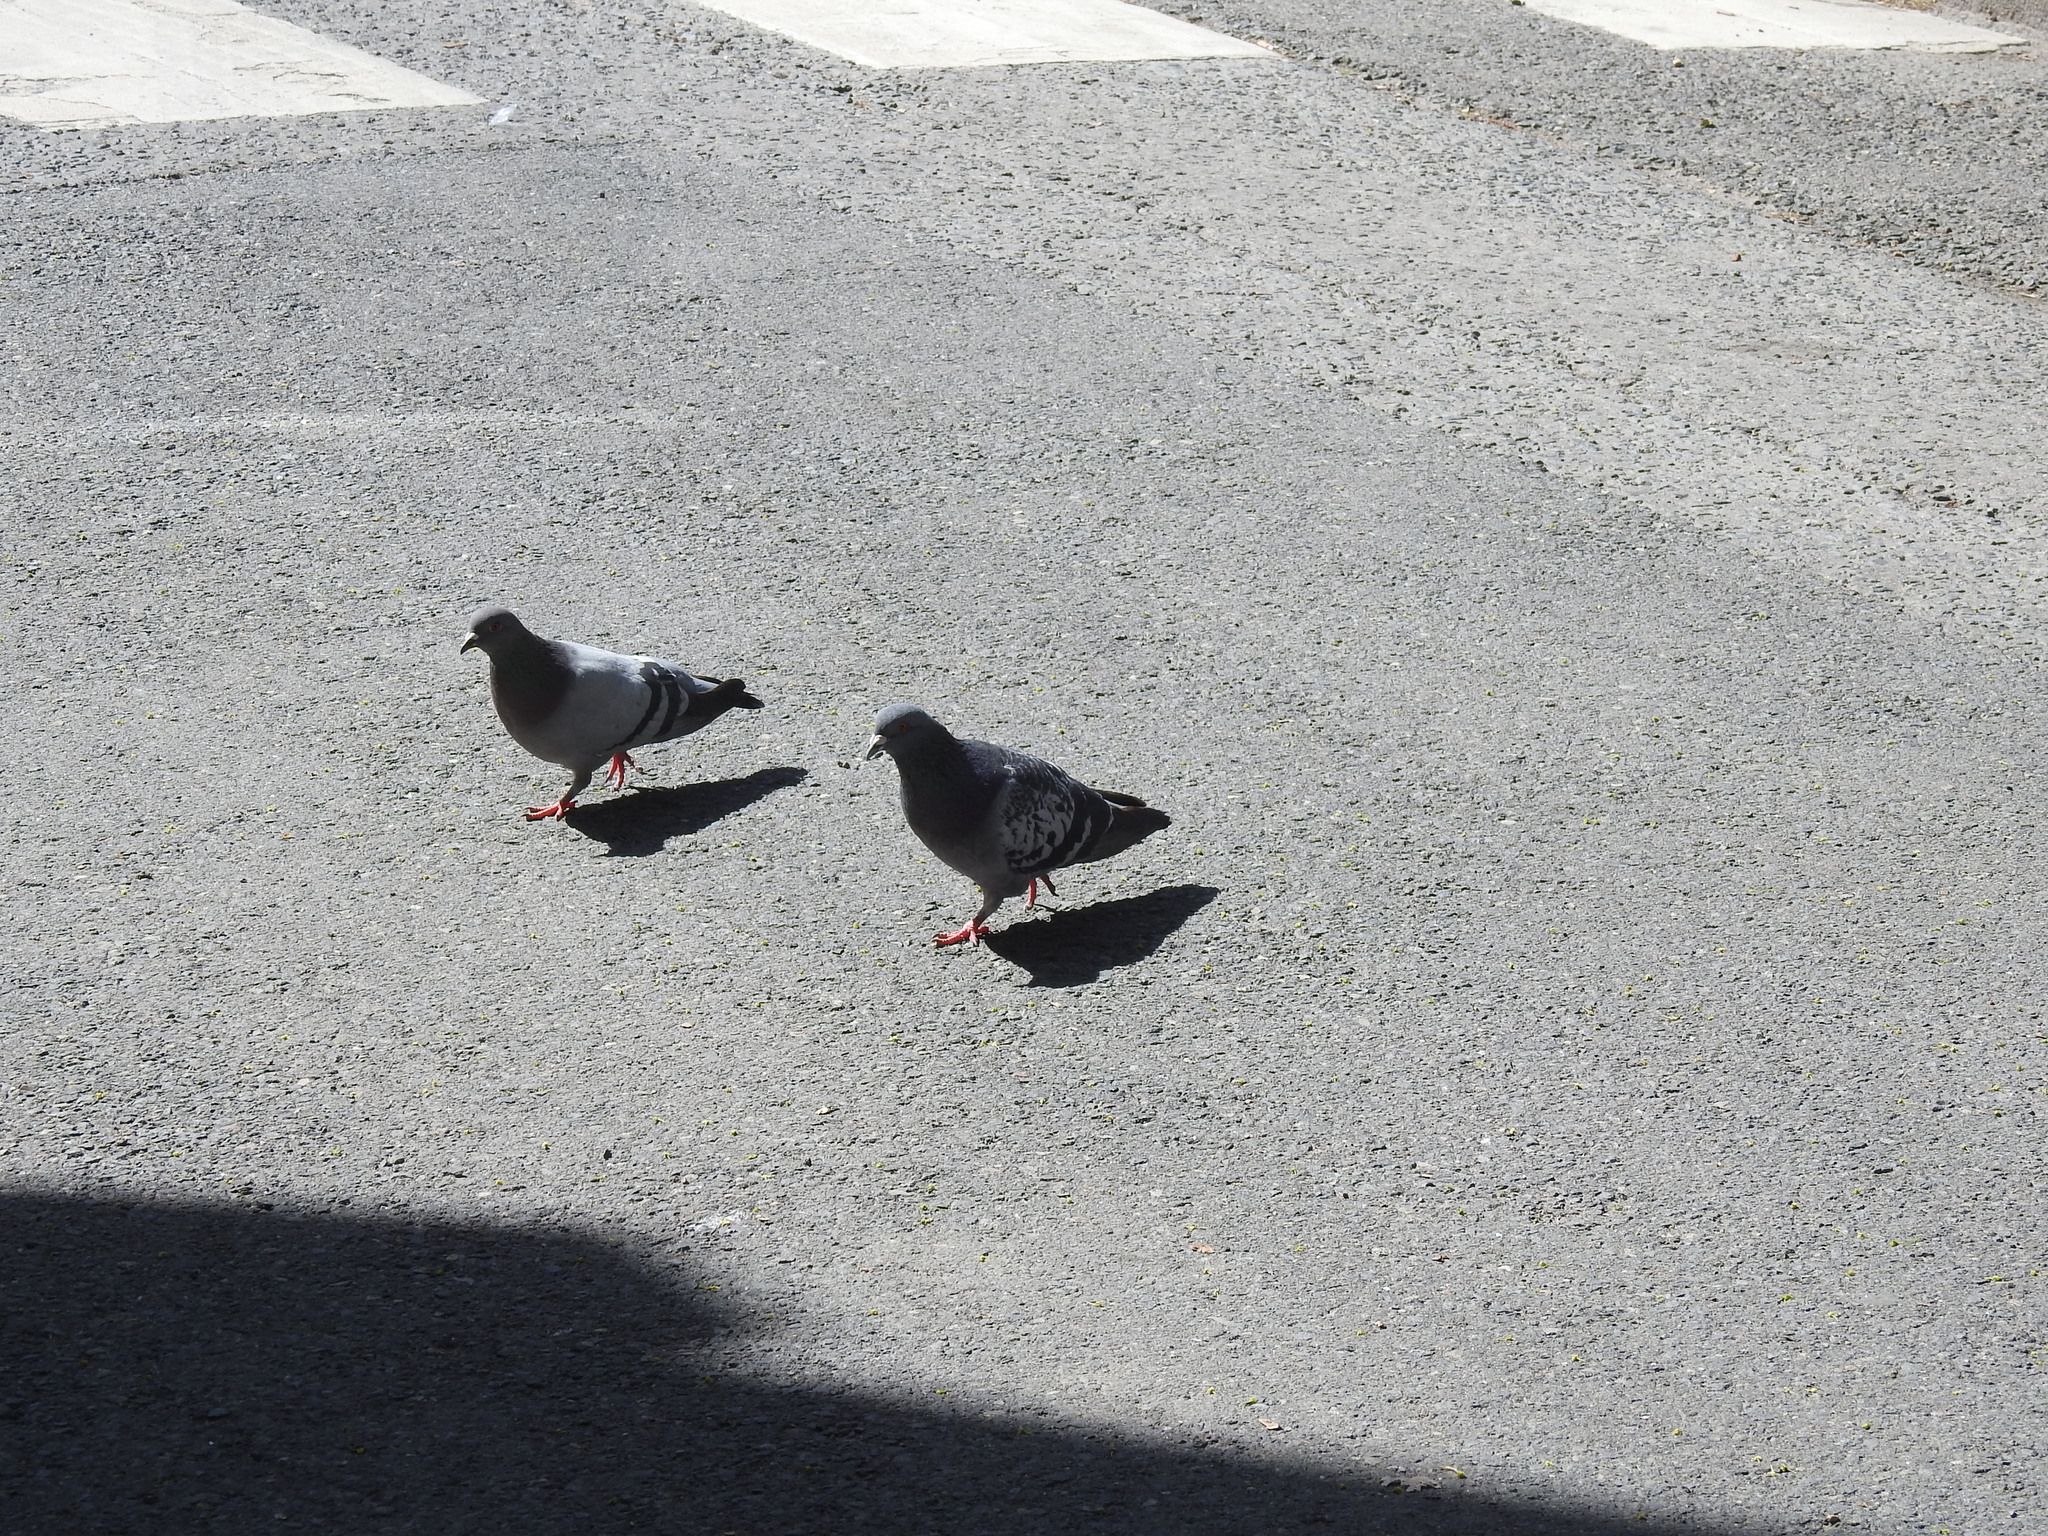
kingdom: Animalia
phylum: Chordata
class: Aves
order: Columbiformes
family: Columbidae
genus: Columba
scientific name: Columba livia
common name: Rock pigeon
